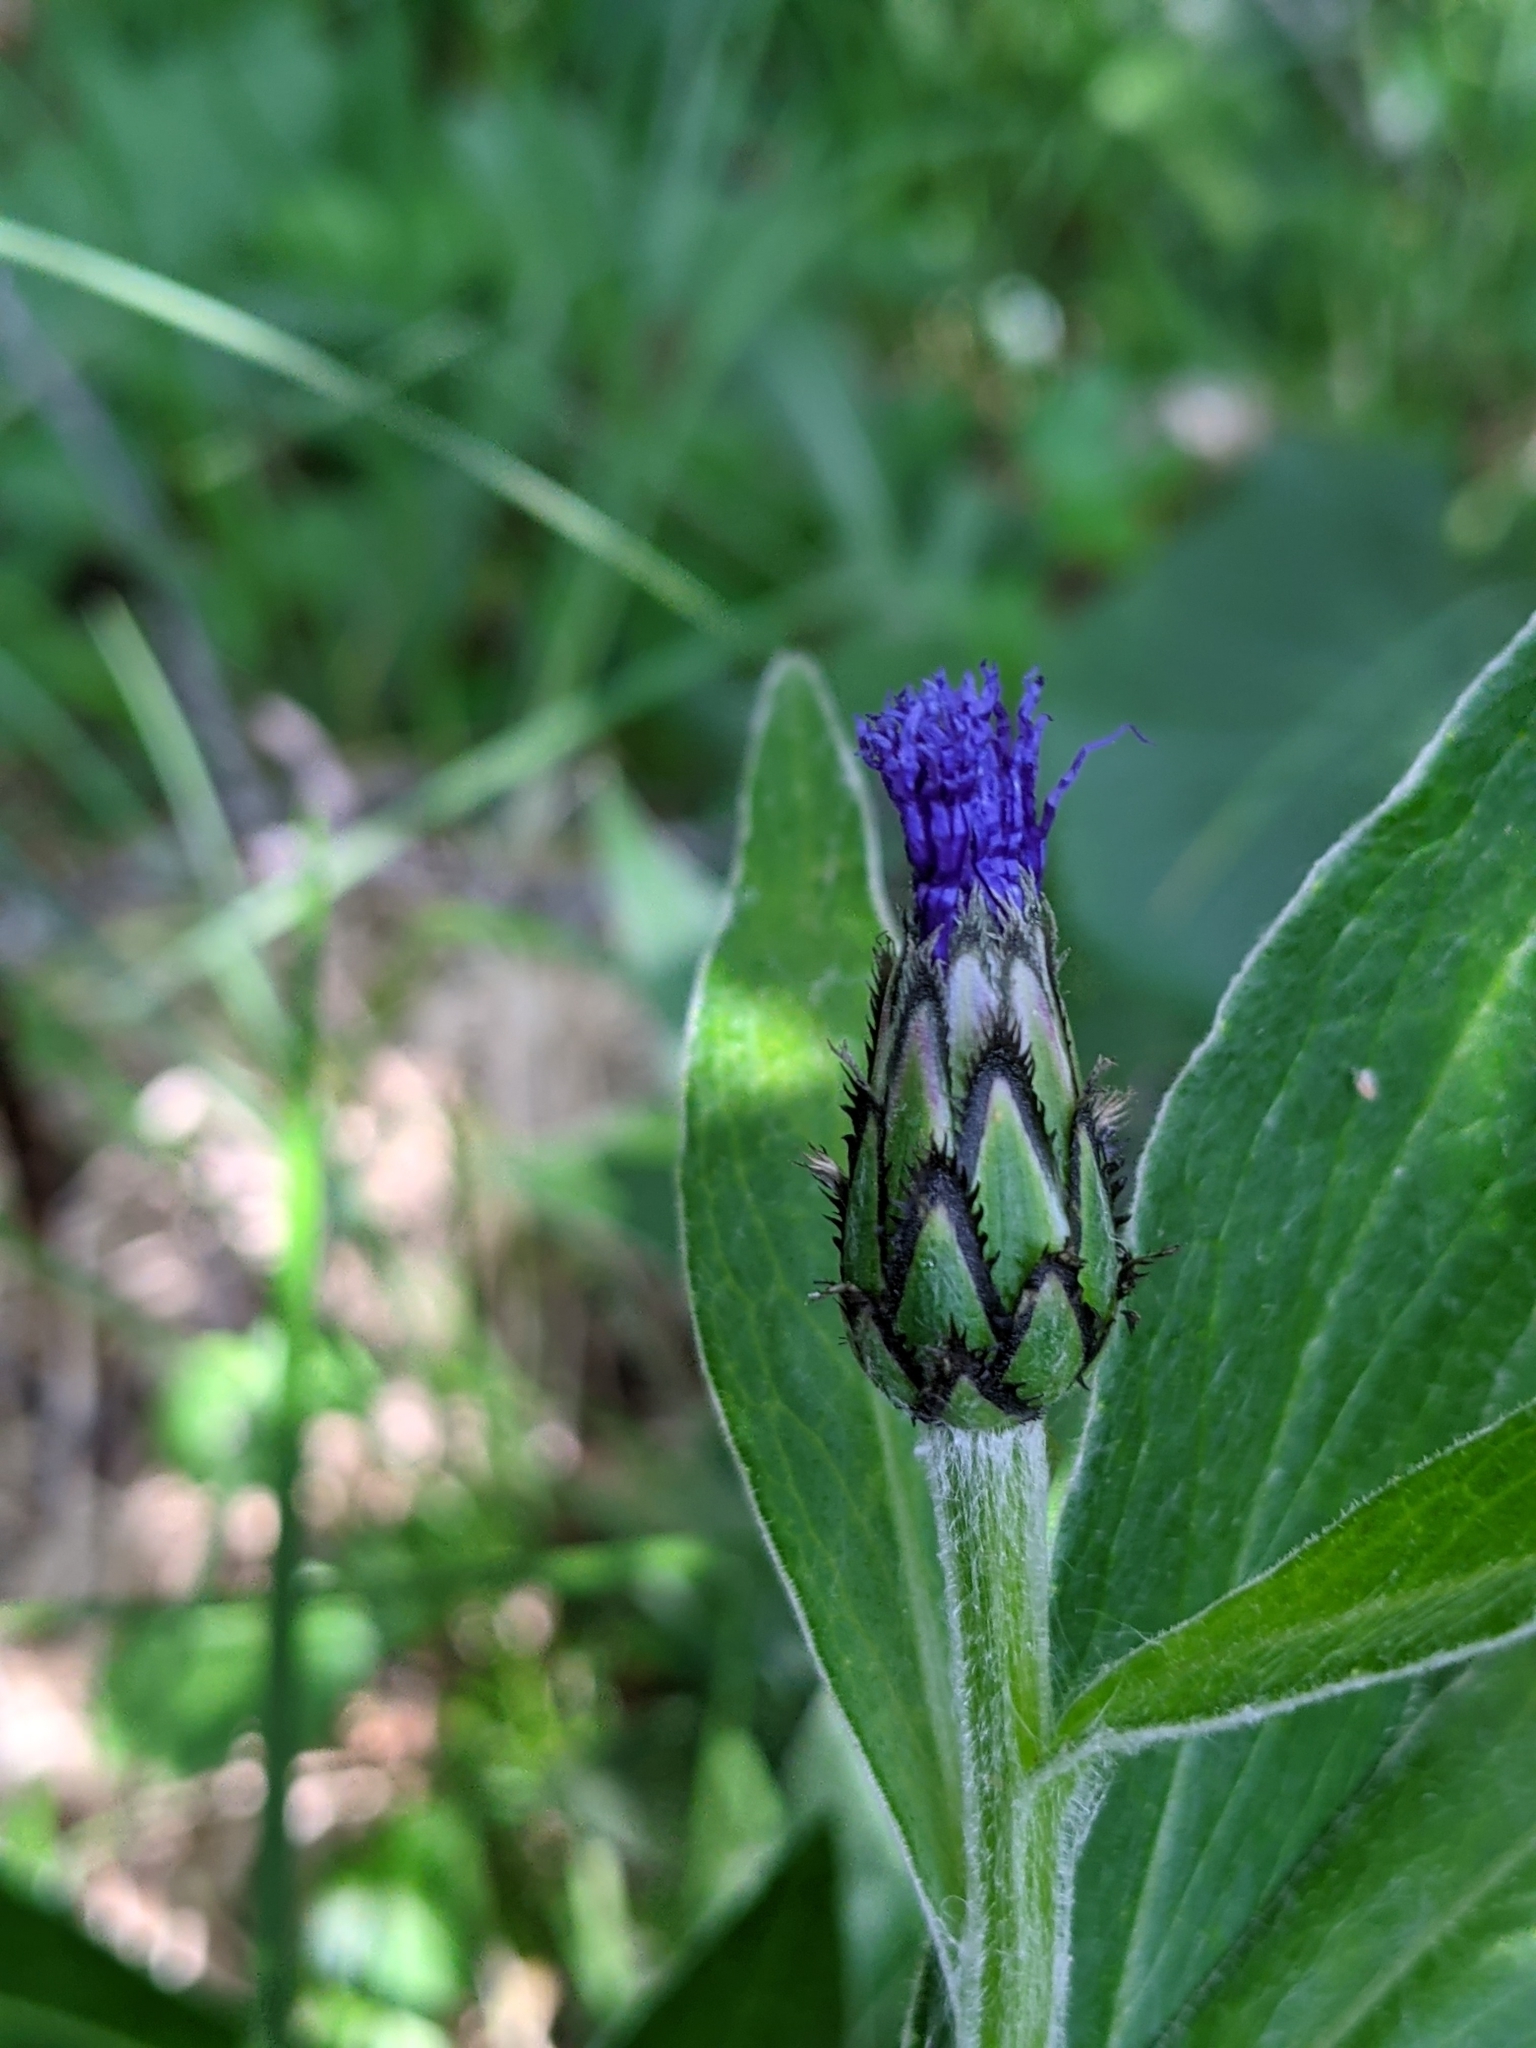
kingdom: Plantae
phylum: Tracheophyta
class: Magnoliopsida
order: Asterales
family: Asteraceae
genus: Centaurea
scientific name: Centaurea montana
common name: Perennial cornflower
